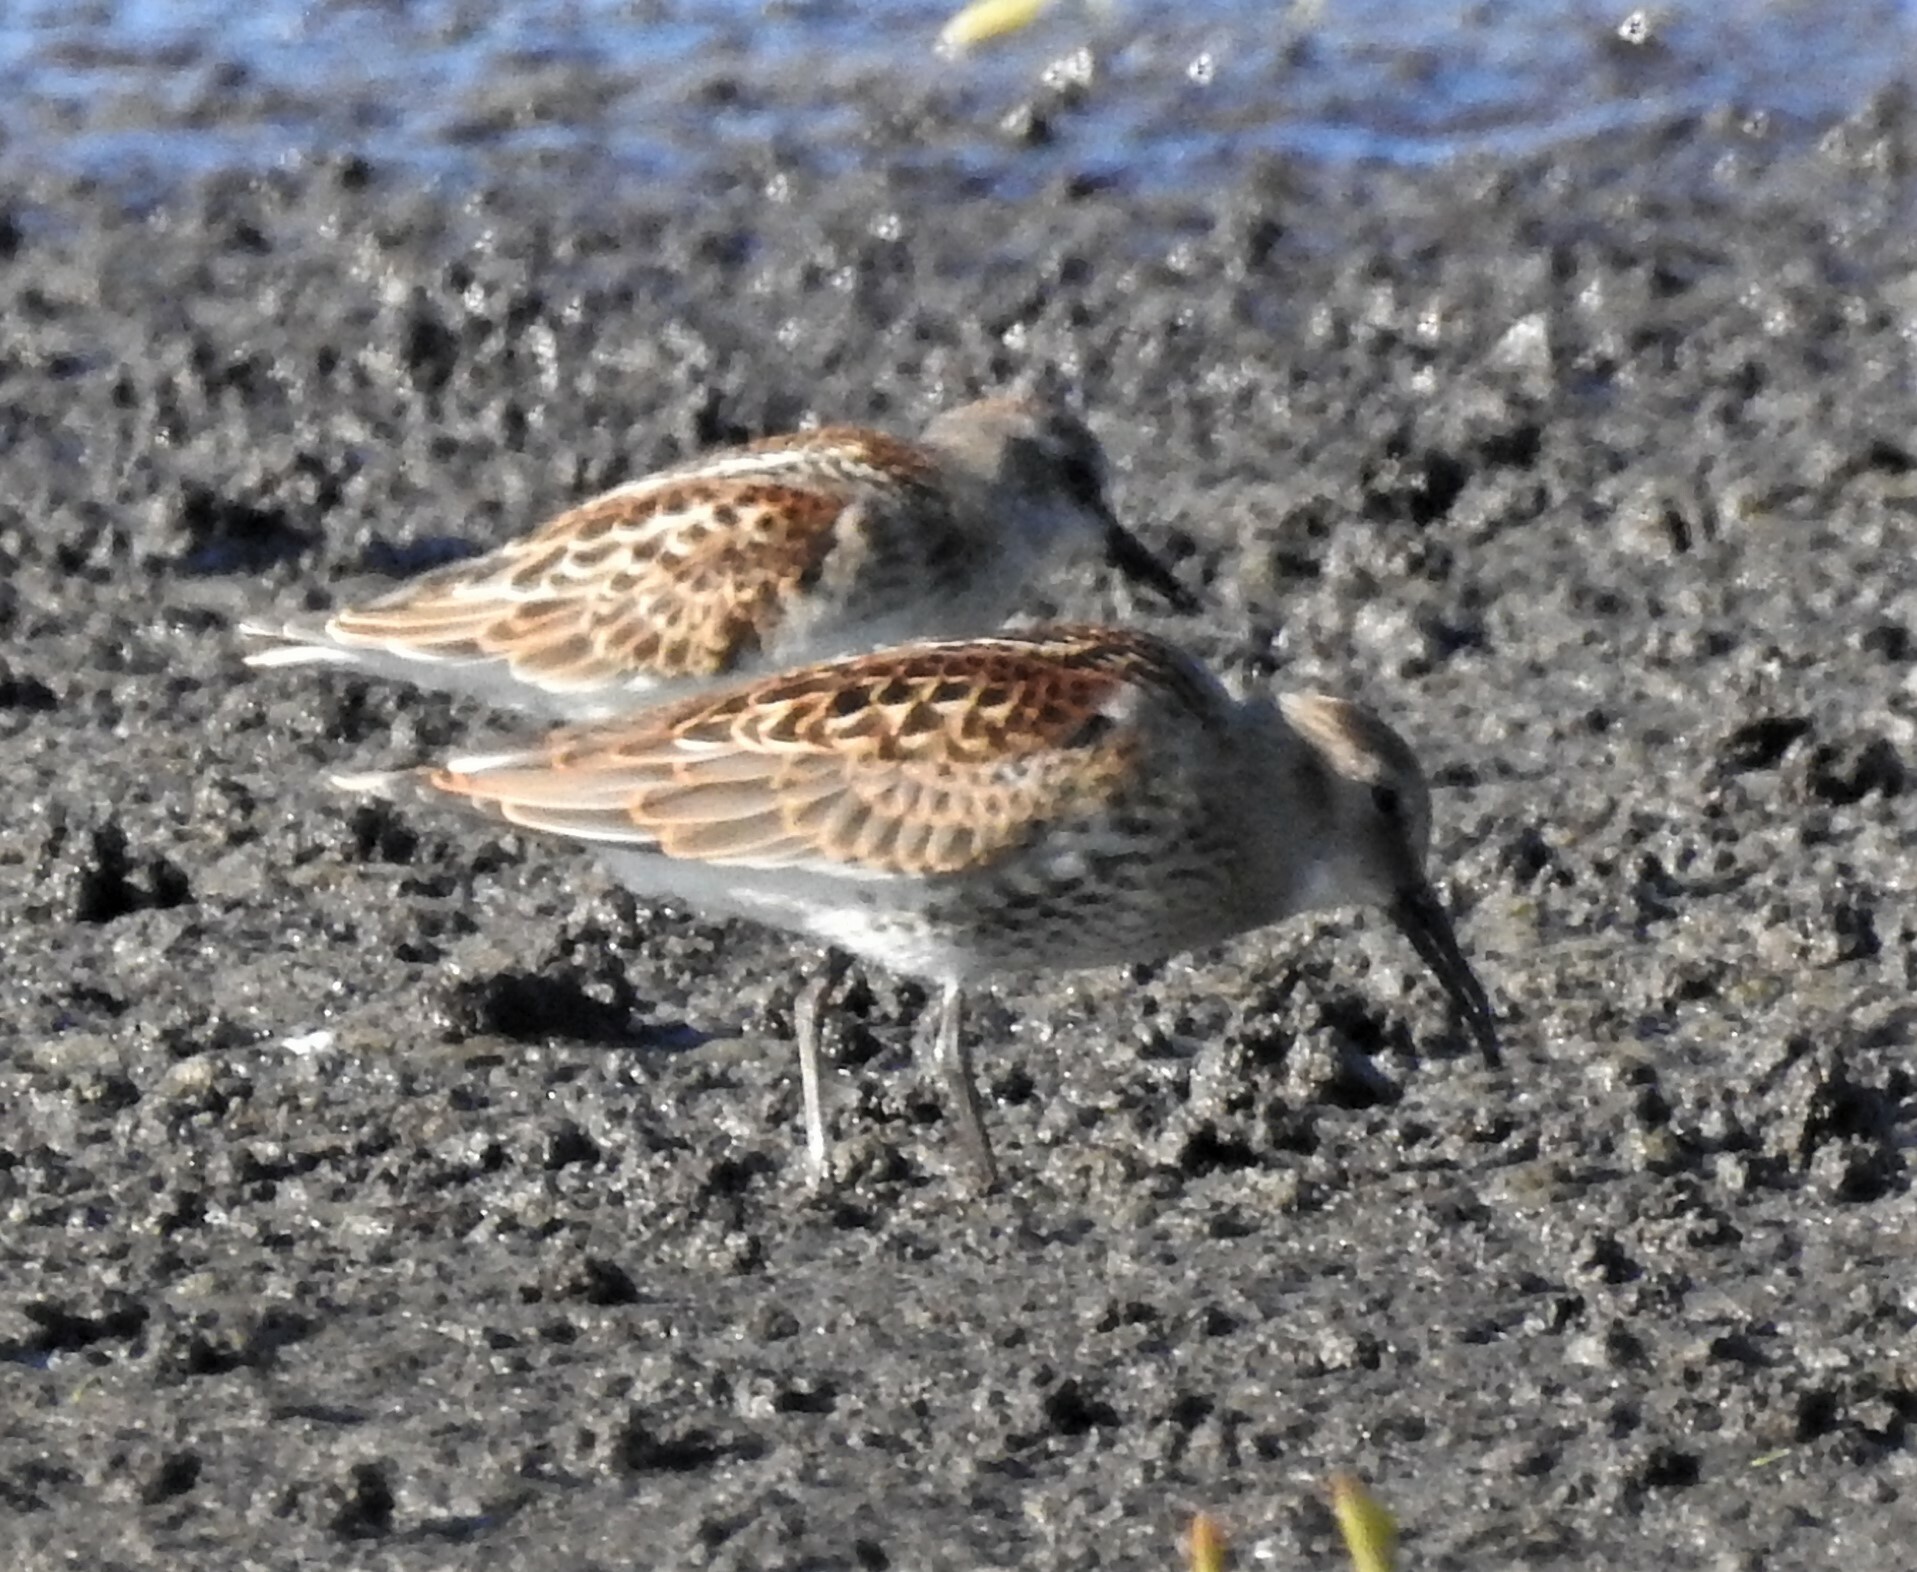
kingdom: Animalia
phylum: Chordata
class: Aves
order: Charadriiformes
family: Scolopacidae
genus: Calidris
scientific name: Calidris alpina
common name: Dunlin
